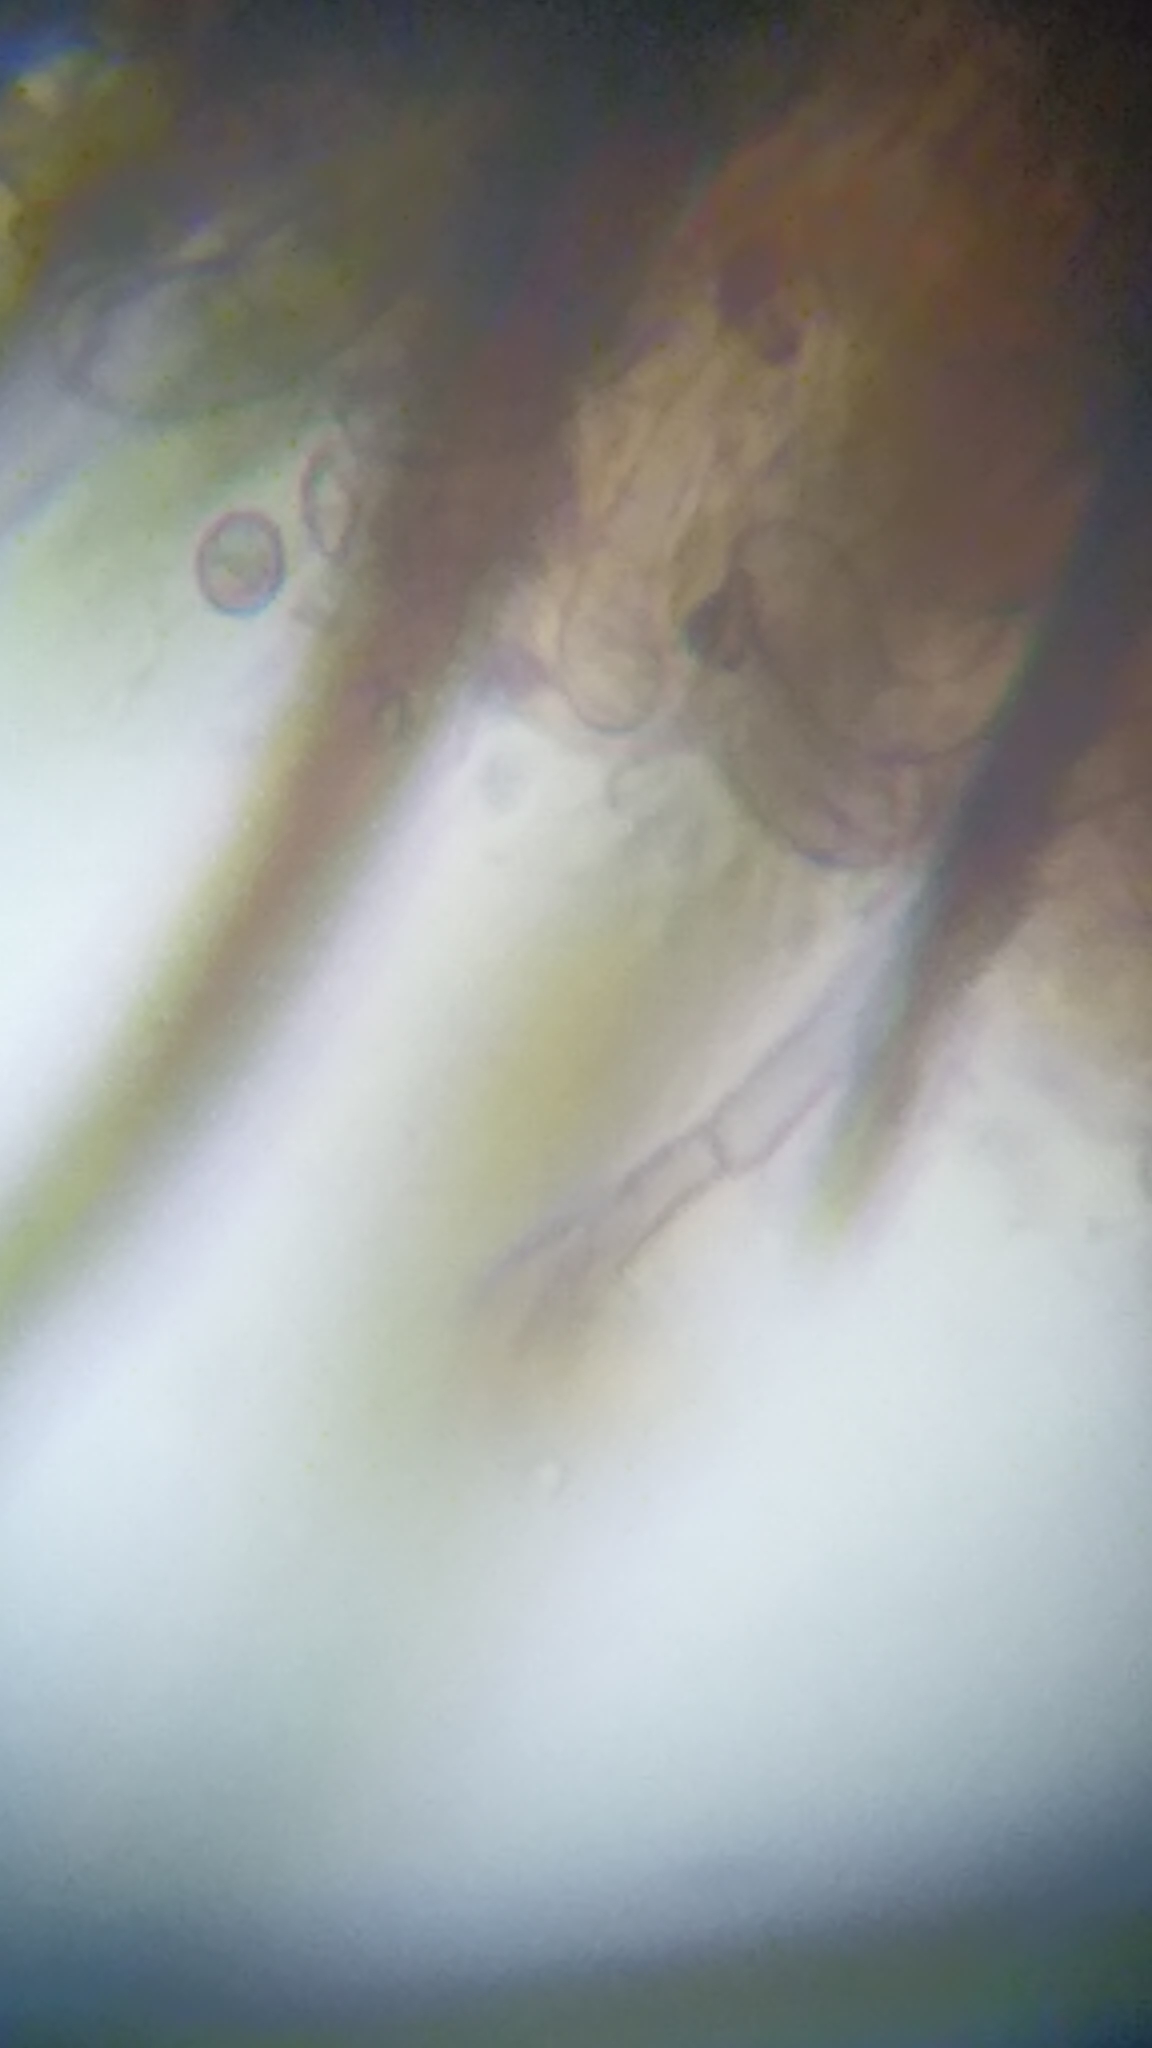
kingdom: Fungi
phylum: Ascomycota
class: Geoglossomycetes
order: Geoglossales
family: Geoglossaceae
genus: Trichoglossum
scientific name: Trichoglossum hirsutum
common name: Hairy earthtongue
